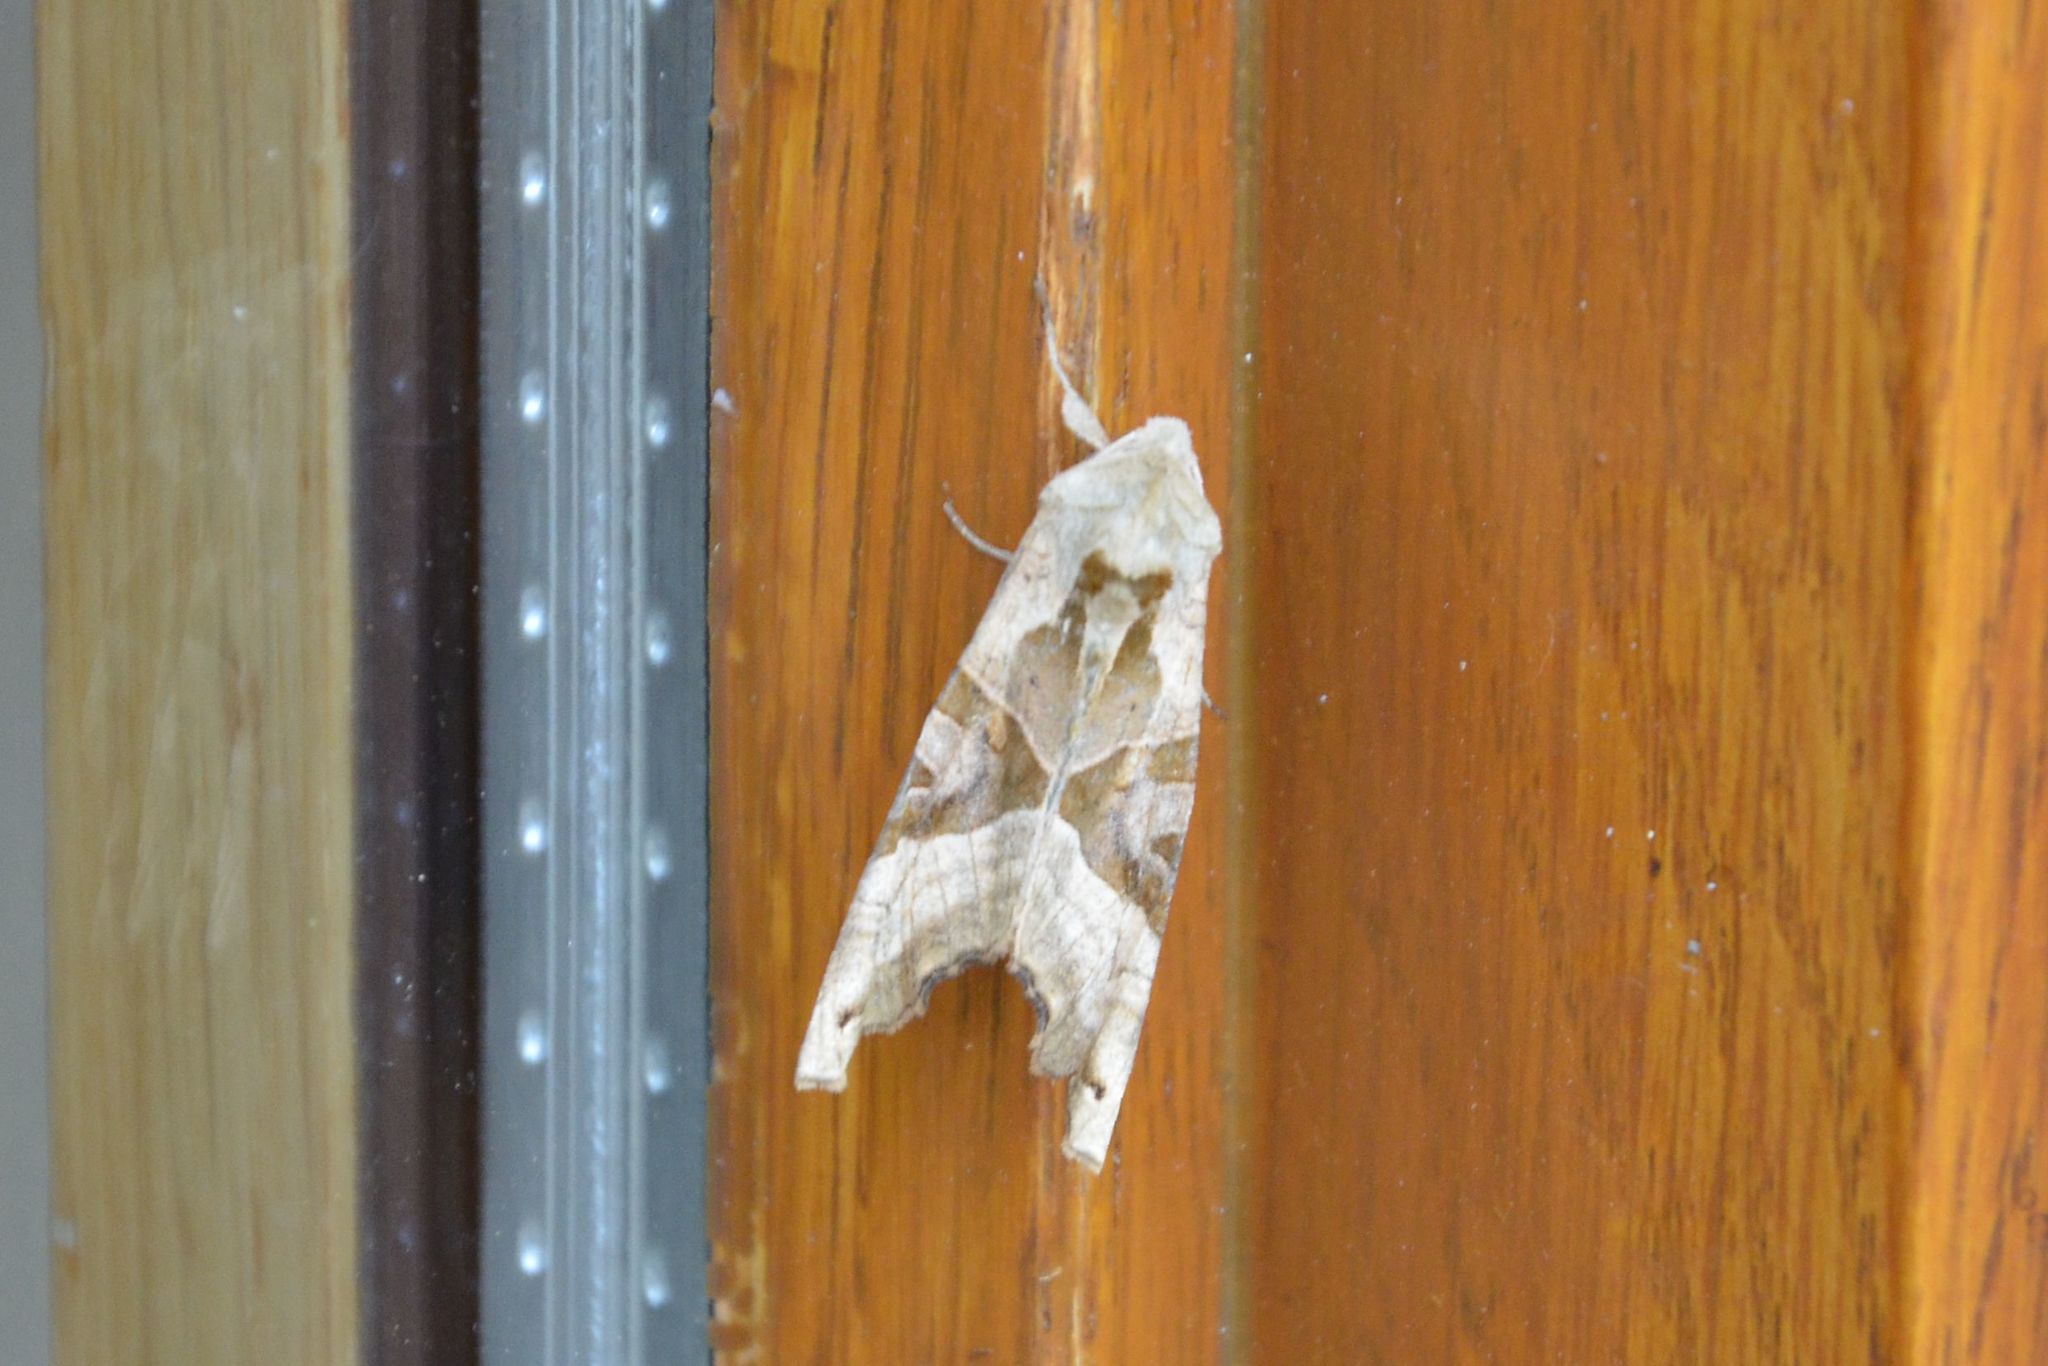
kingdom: Animalia
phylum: Arthropoda
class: Insecta
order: Lepidoptera
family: Noctuidae
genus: Phlogophora
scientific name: Phlogophora meticulosa
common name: Angle shades
